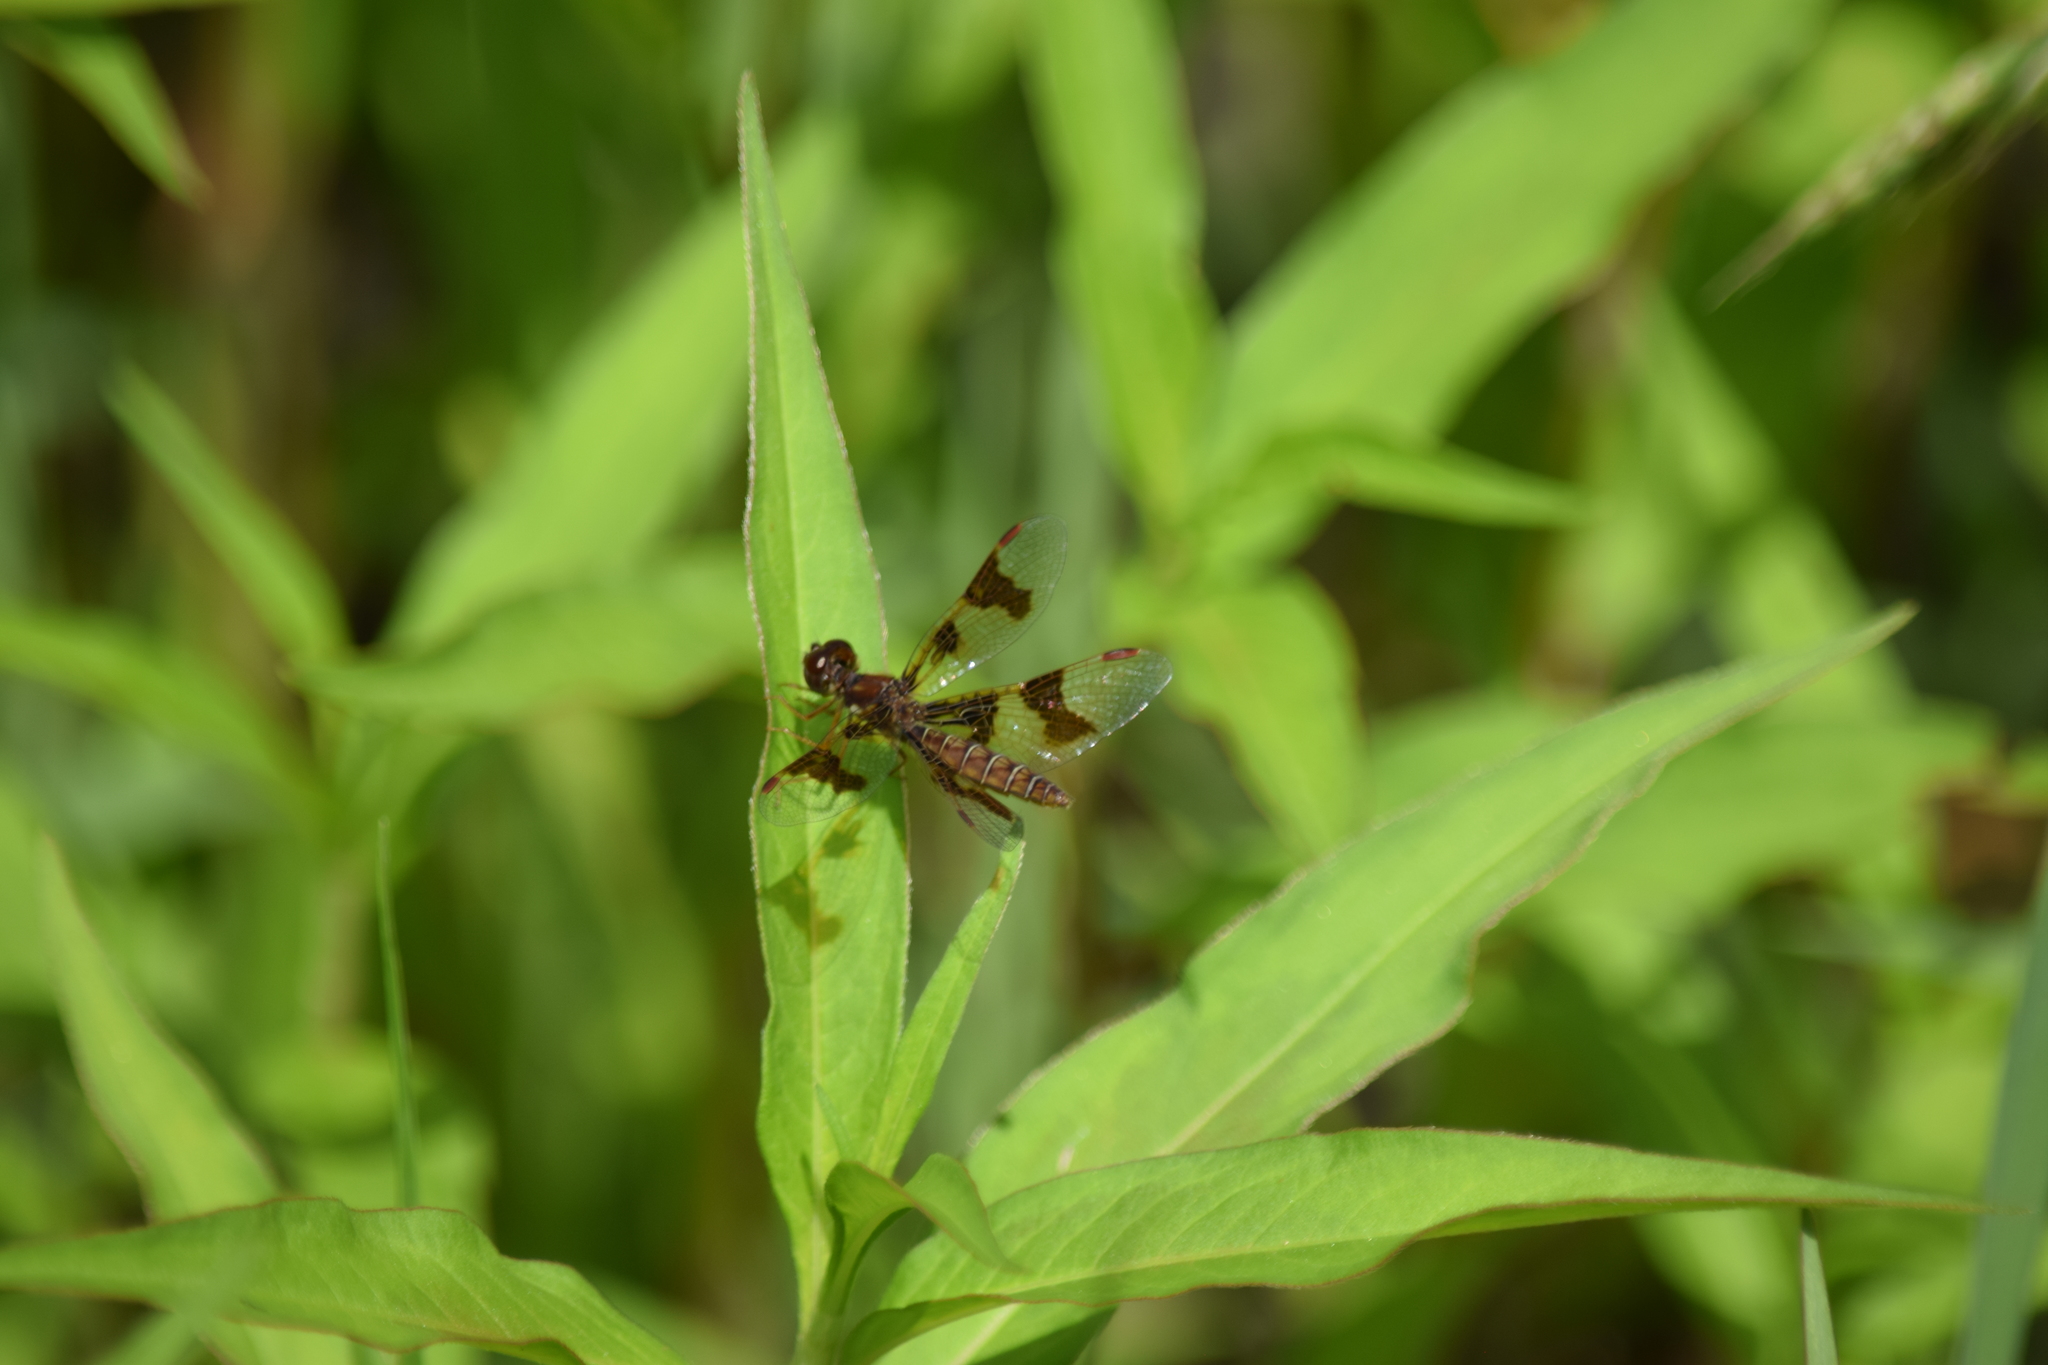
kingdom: Animalia
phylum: Arthropoda
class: Insecta
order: Odonata
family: Libellulidae
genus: Perithemis
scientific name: Perithemis tenera
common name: Eastern amberwing
